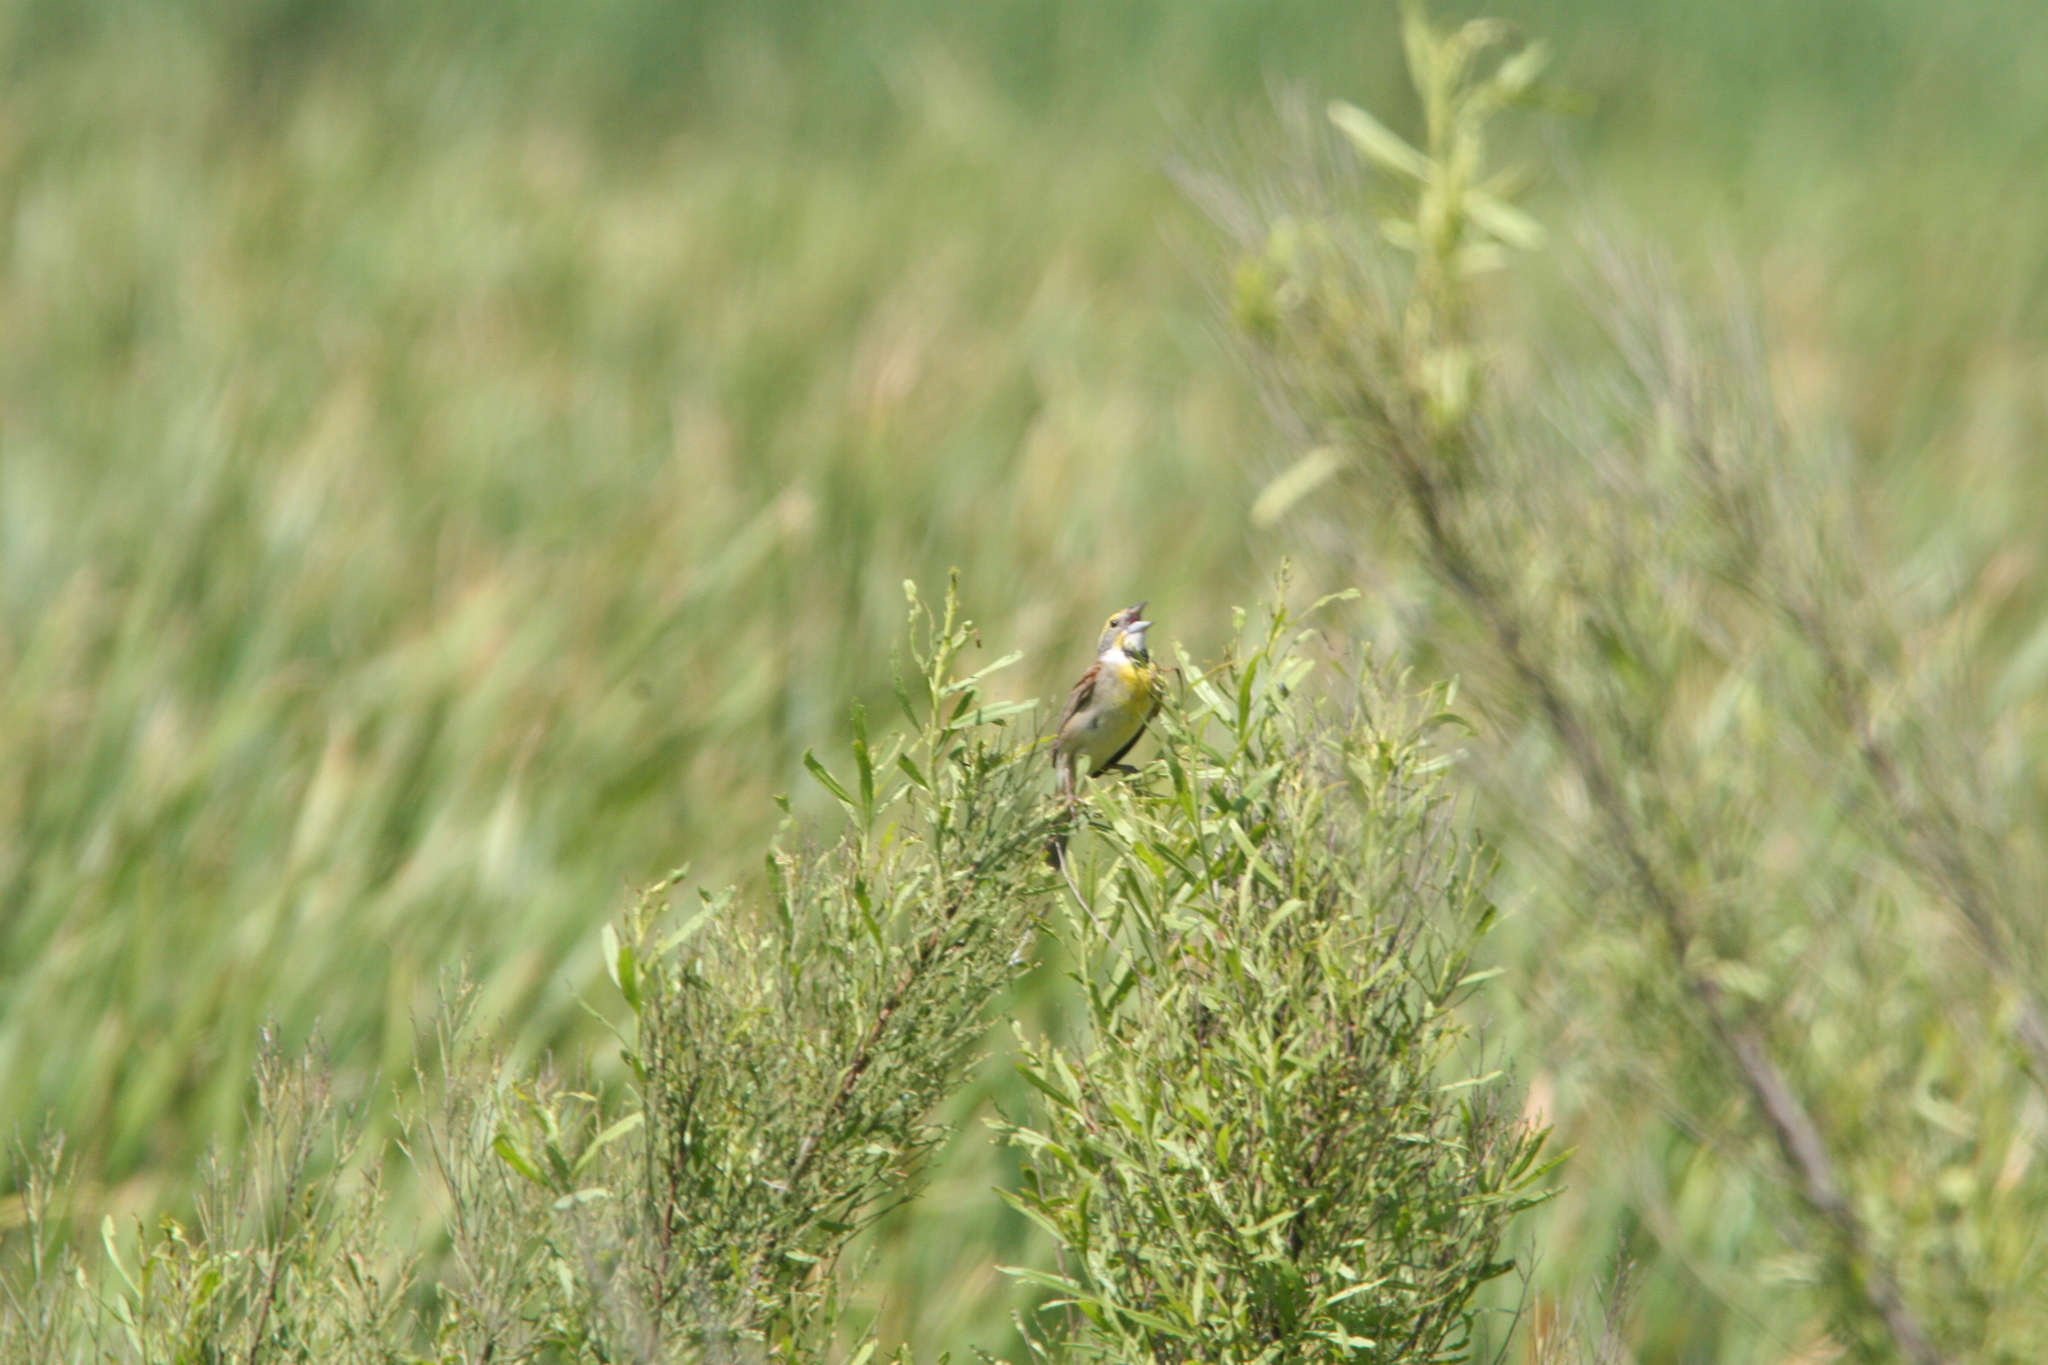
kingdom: Animalia
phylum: Chordata
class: Aves
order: Passeriformes
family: Cardinalidae
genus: Spiza
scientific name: Spiza americana
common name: Dickcissel
